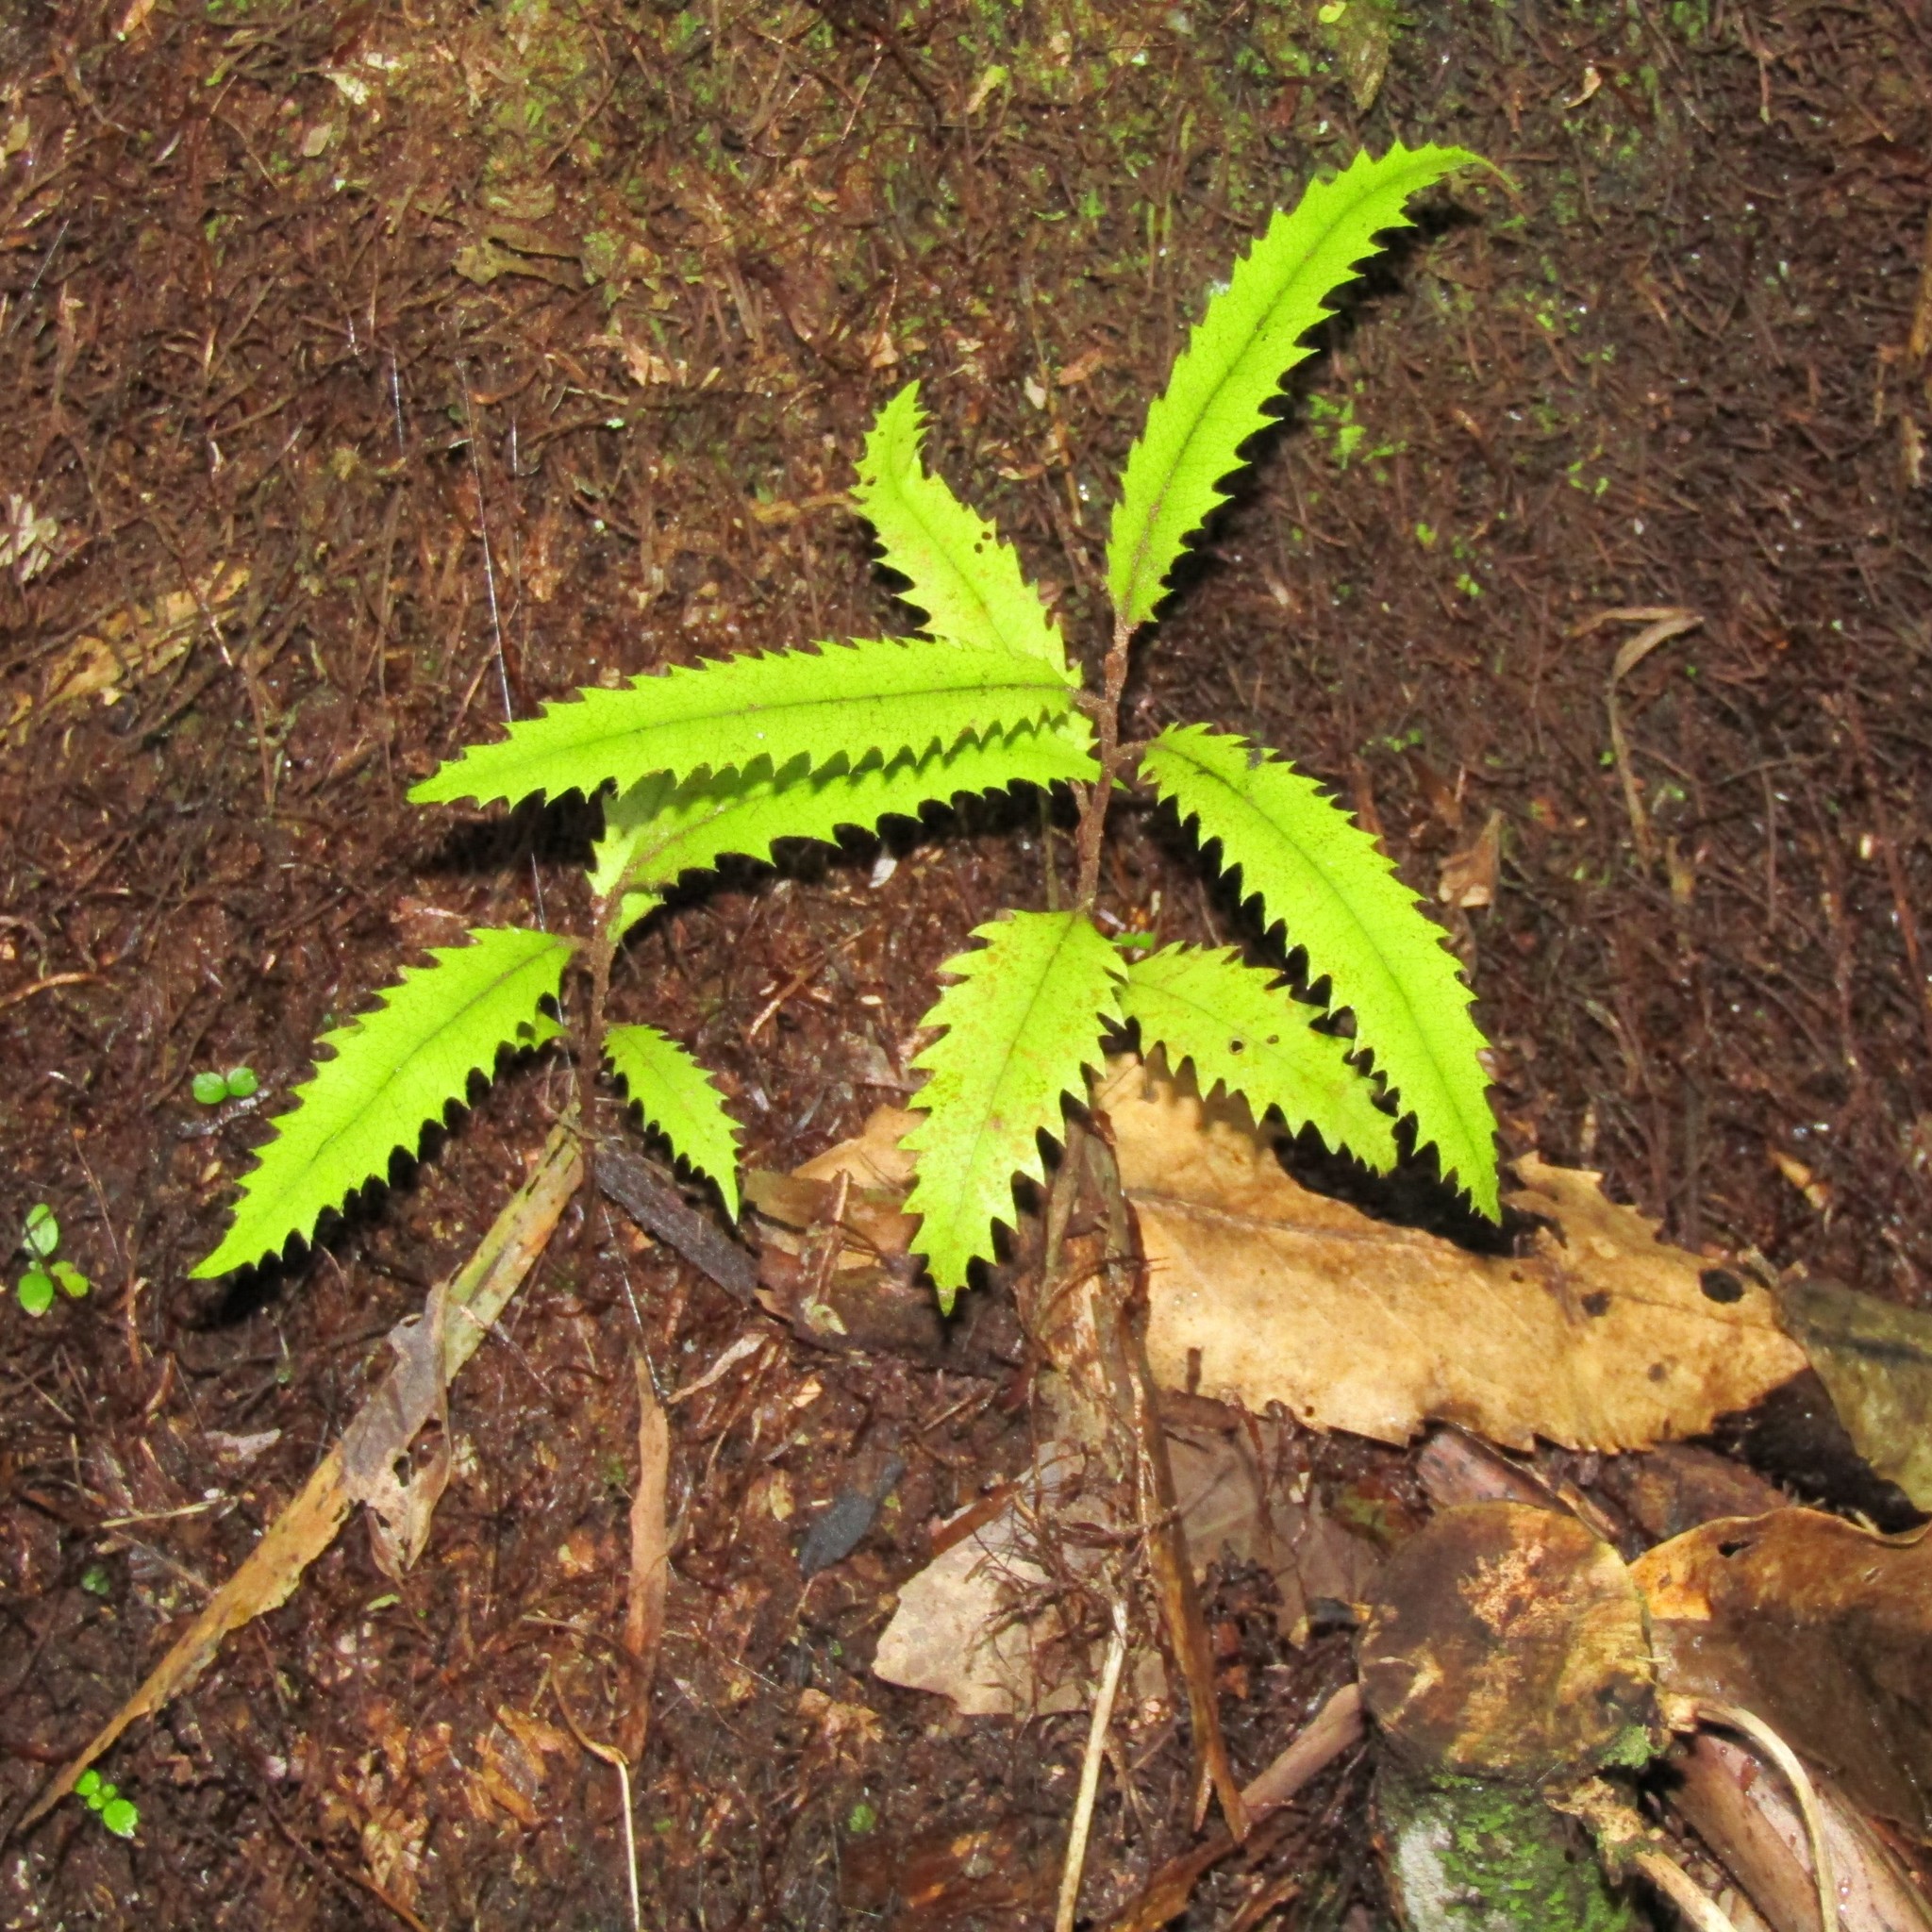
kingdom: Plantae
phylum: Tracheophyta
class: Magnoliopsida
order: Proteales
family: Proteaceae
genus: Knightia
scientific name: Knightia excelsa
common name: New zealand-honeysuckle
